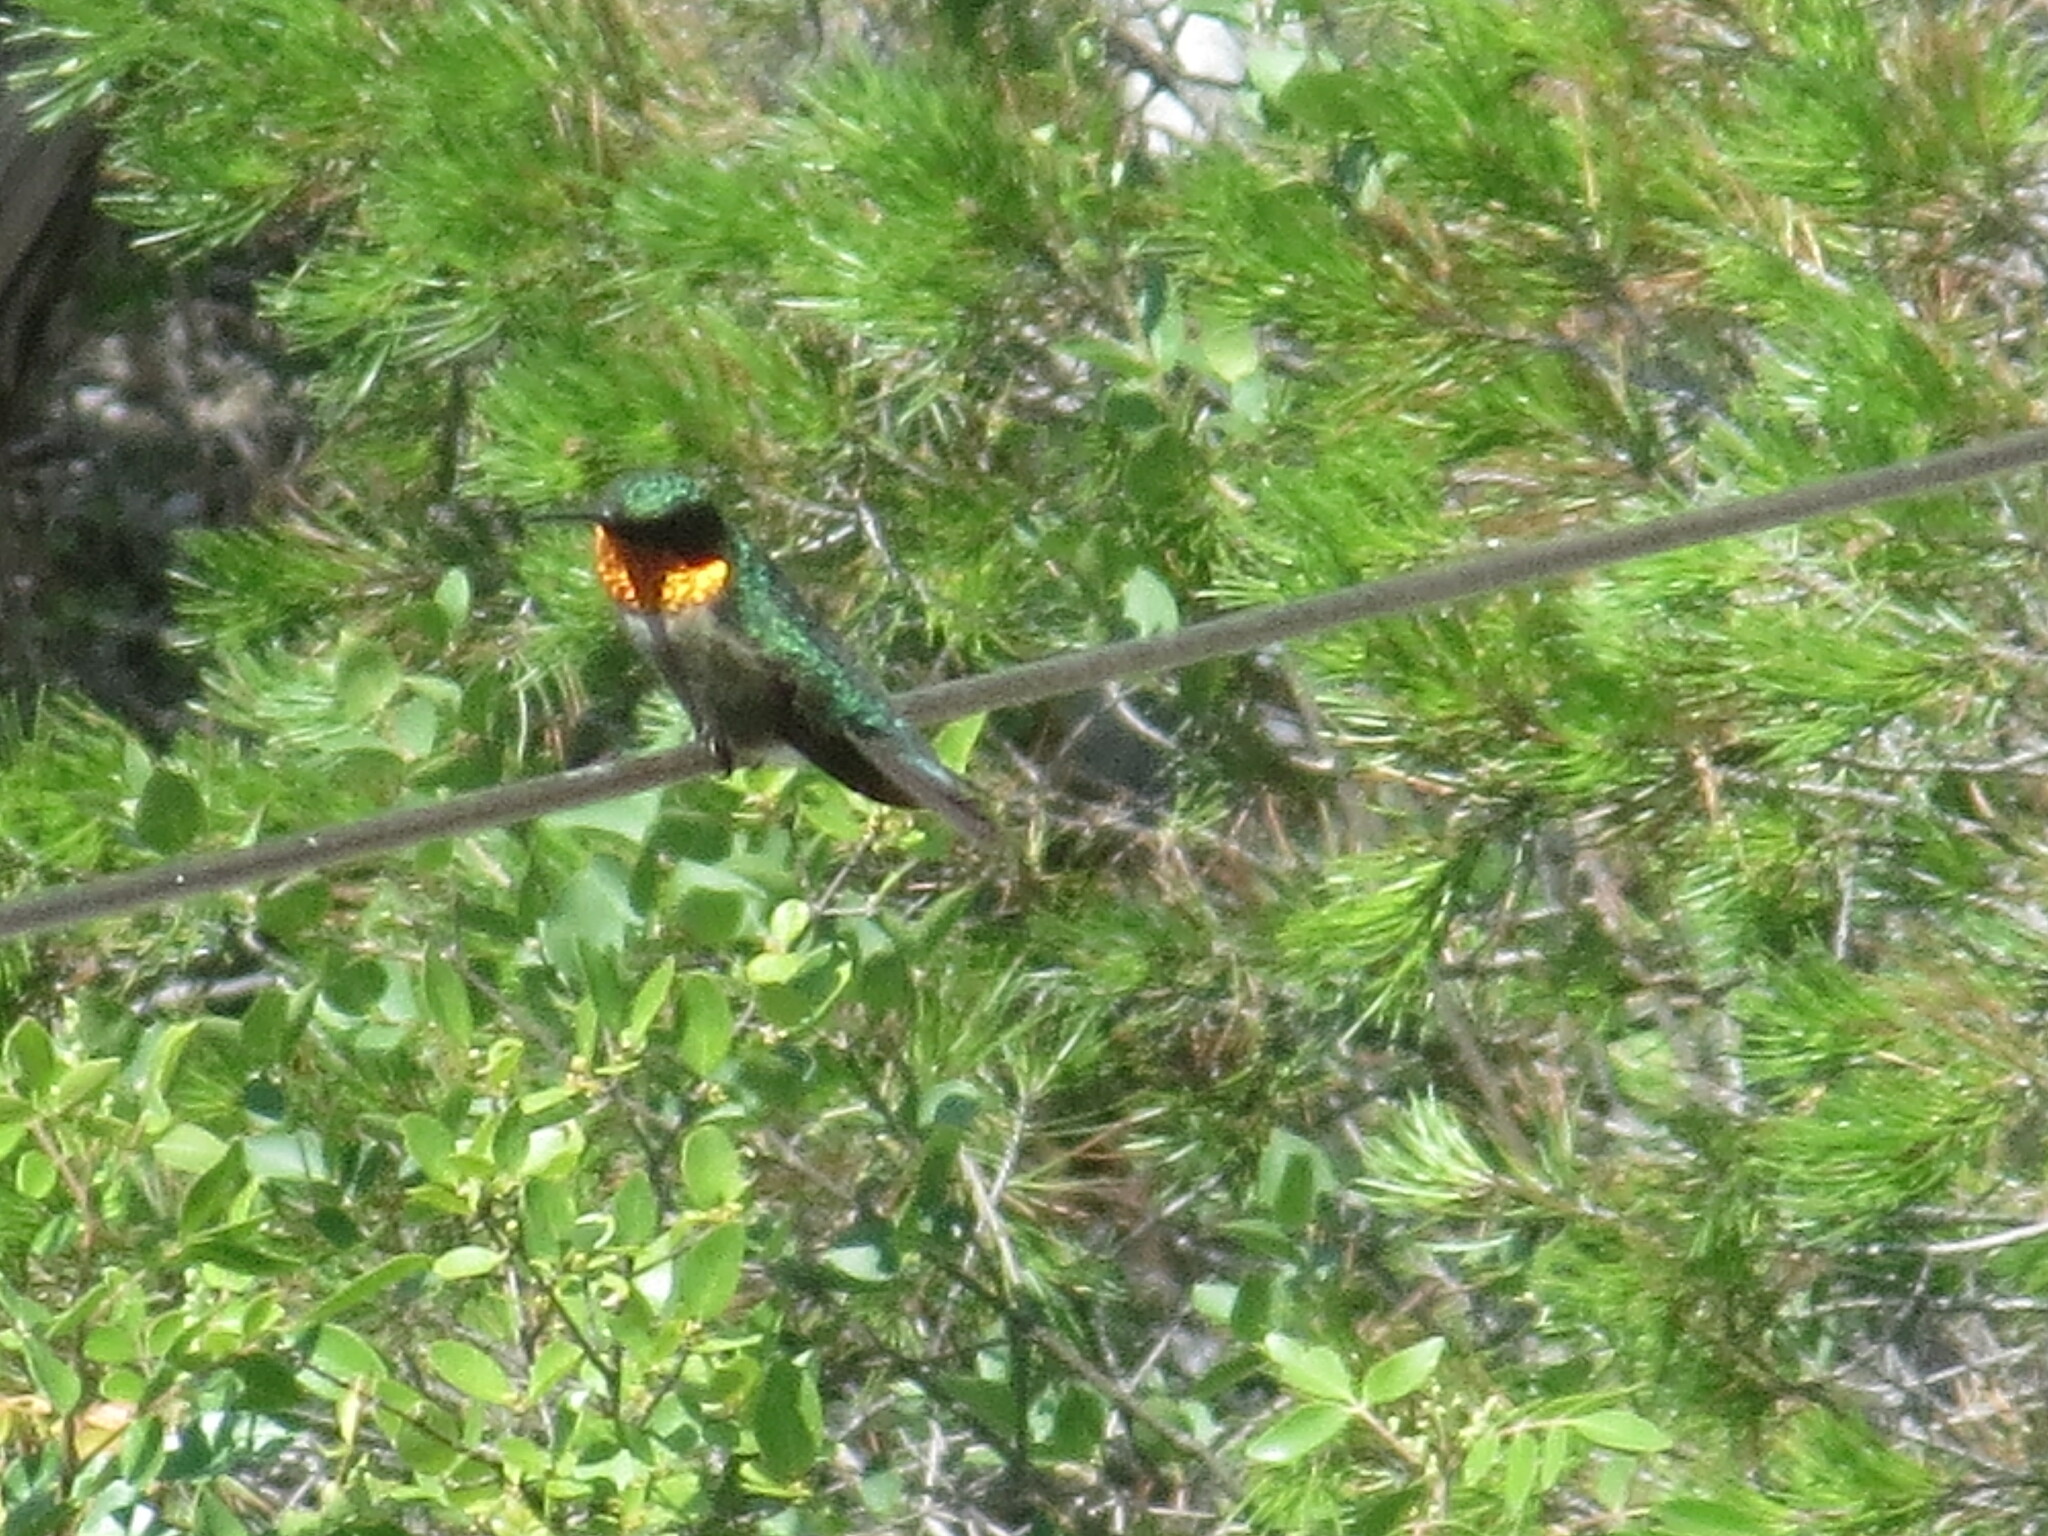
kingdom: Animalia
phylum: Chordata
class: Aves
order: Apodiformes
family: Trochilidae
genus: Archilochus
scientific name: Archilochus colubris
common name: Ruby-throated hummingbird
